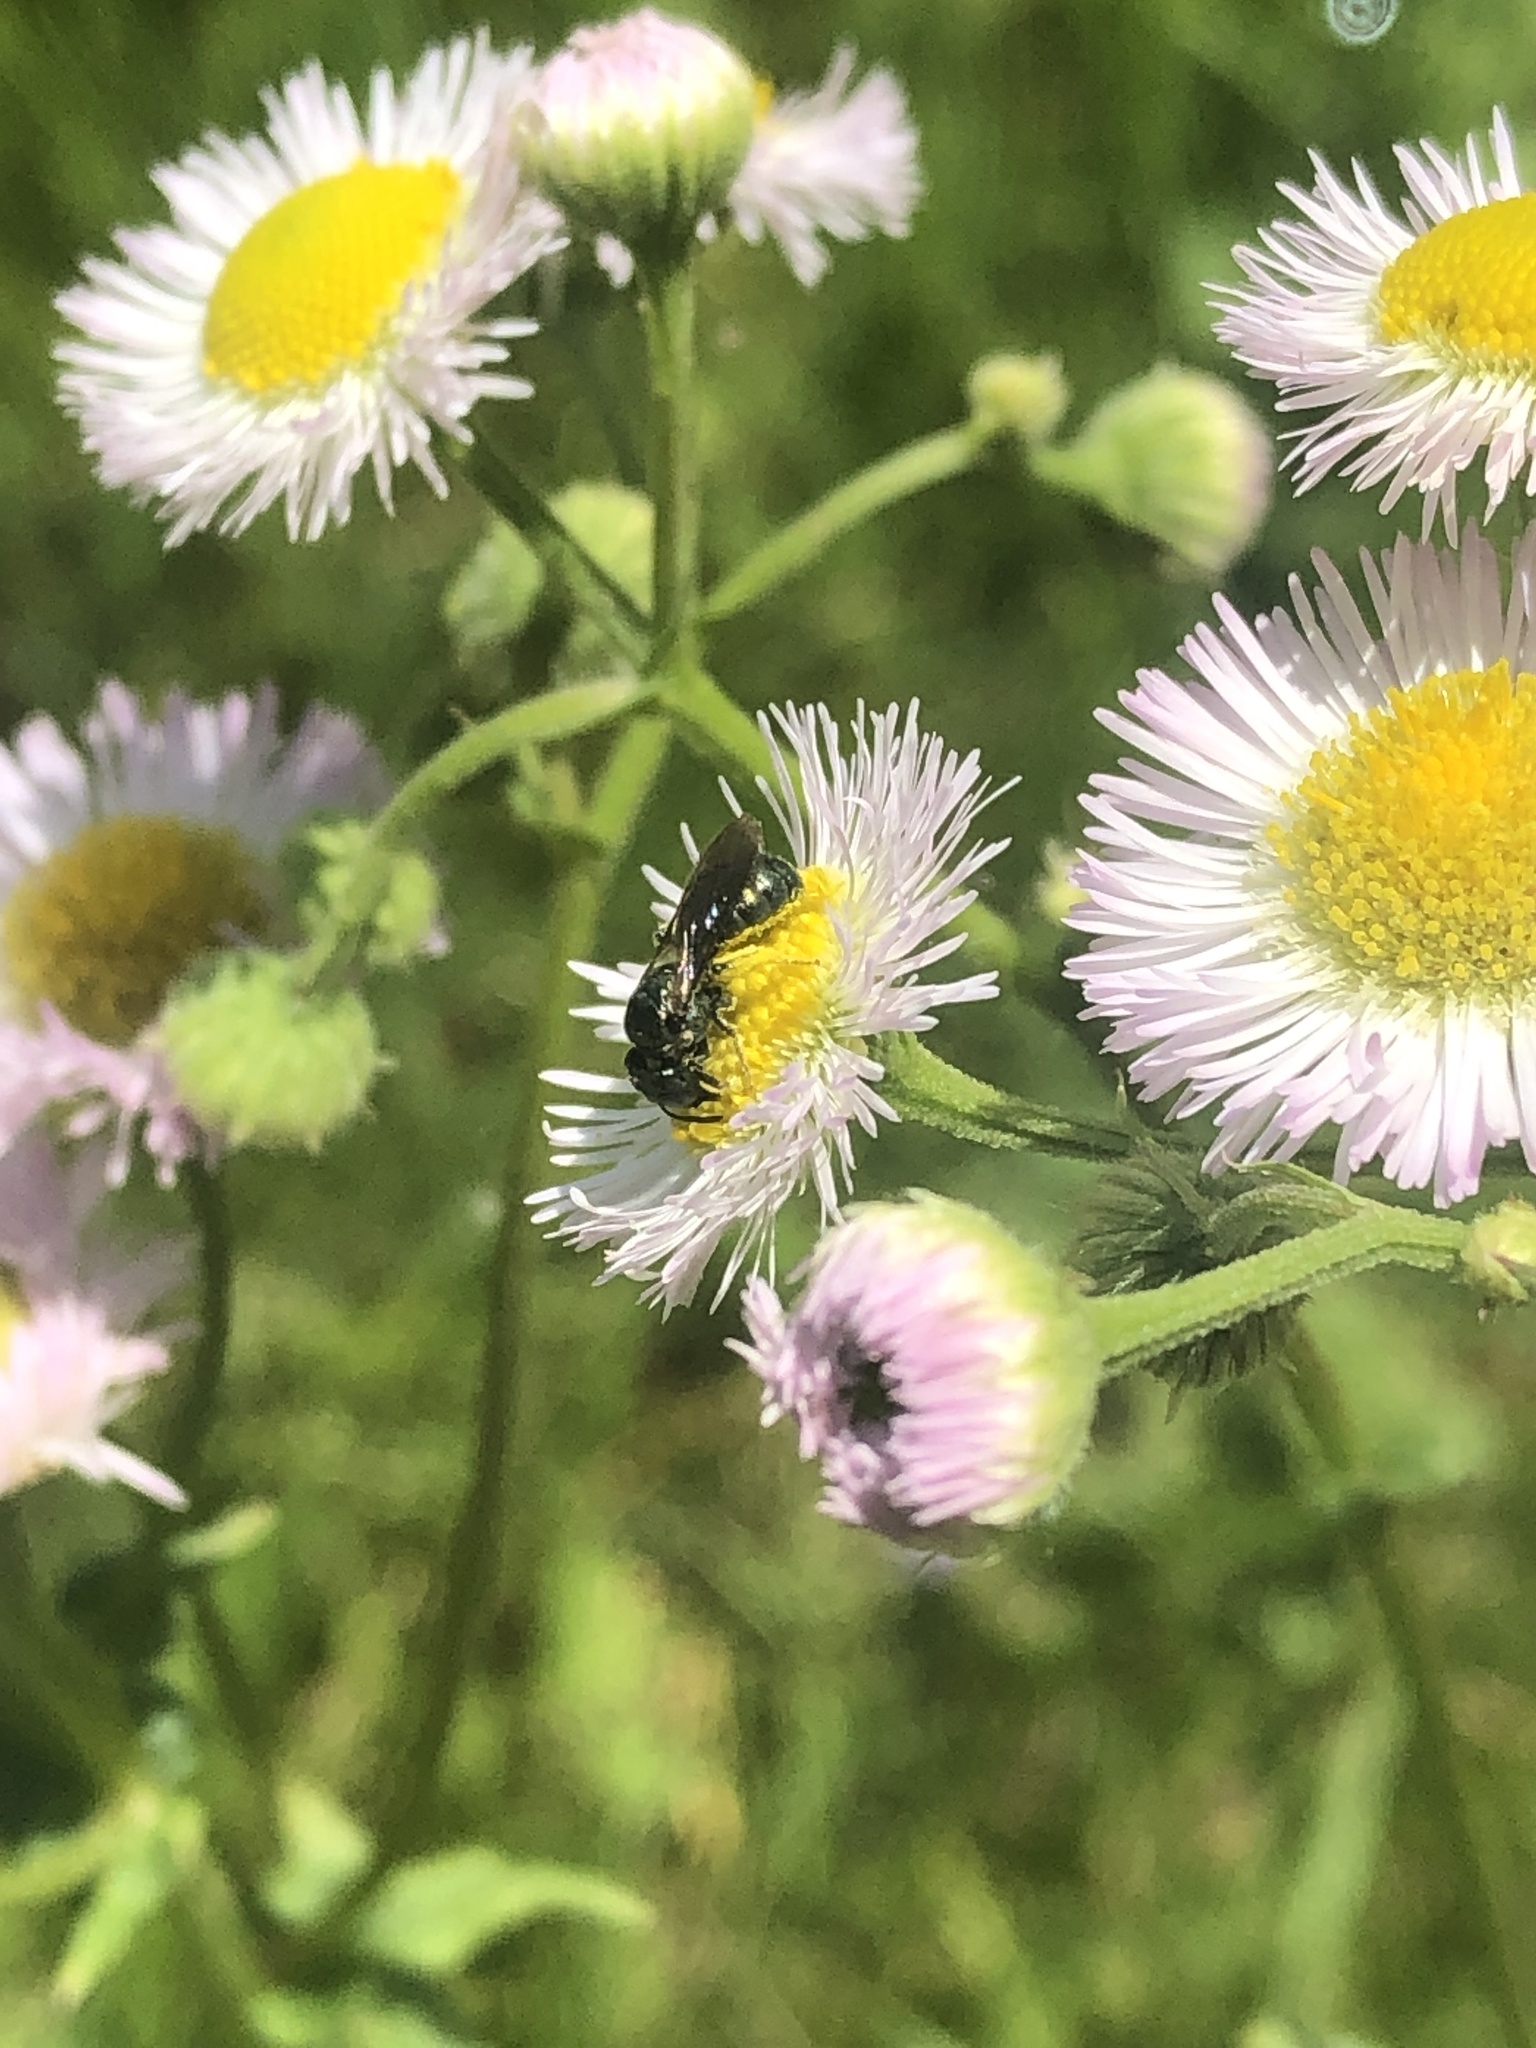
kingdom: Animalia
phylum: Arthropoda
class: Insecta
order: Hymenoptera
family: Apidae
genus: Zadontomerus
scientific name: Zadontomerus
